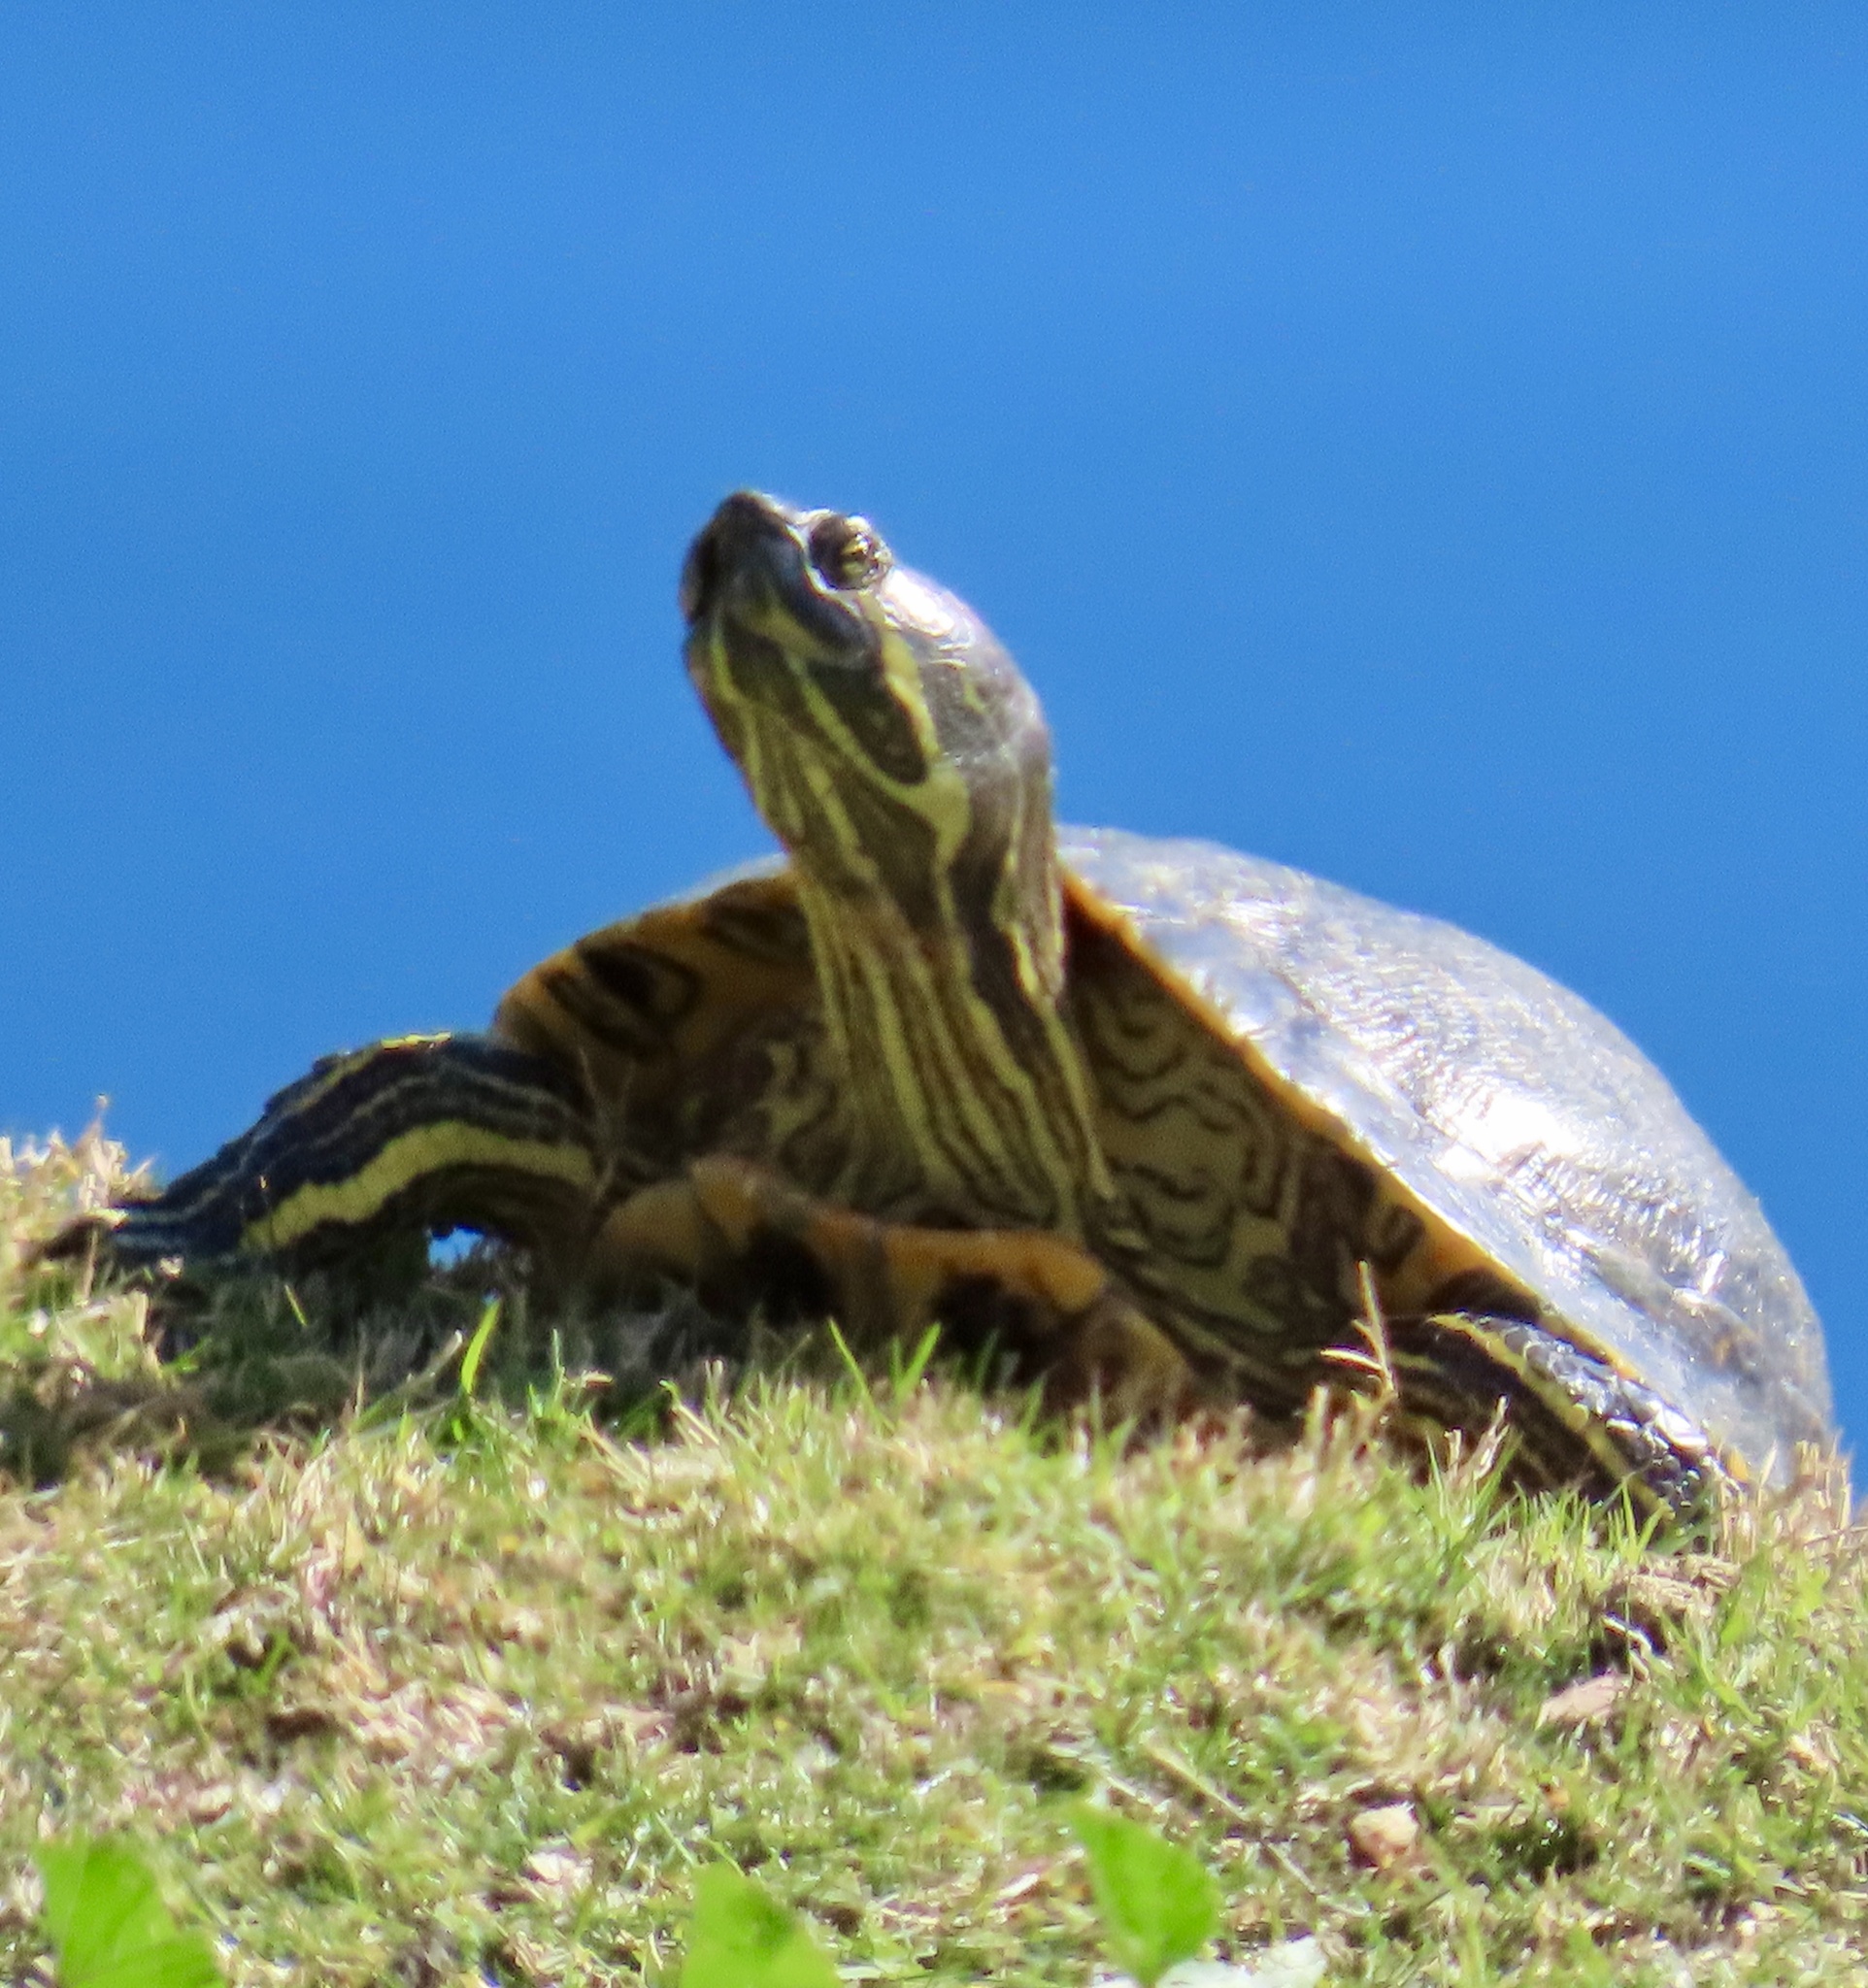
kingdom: Animalia
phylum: Chordata
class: Testudines
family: Emydidae
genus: Trachemys
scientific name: Trachemys scripta
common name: Slider
